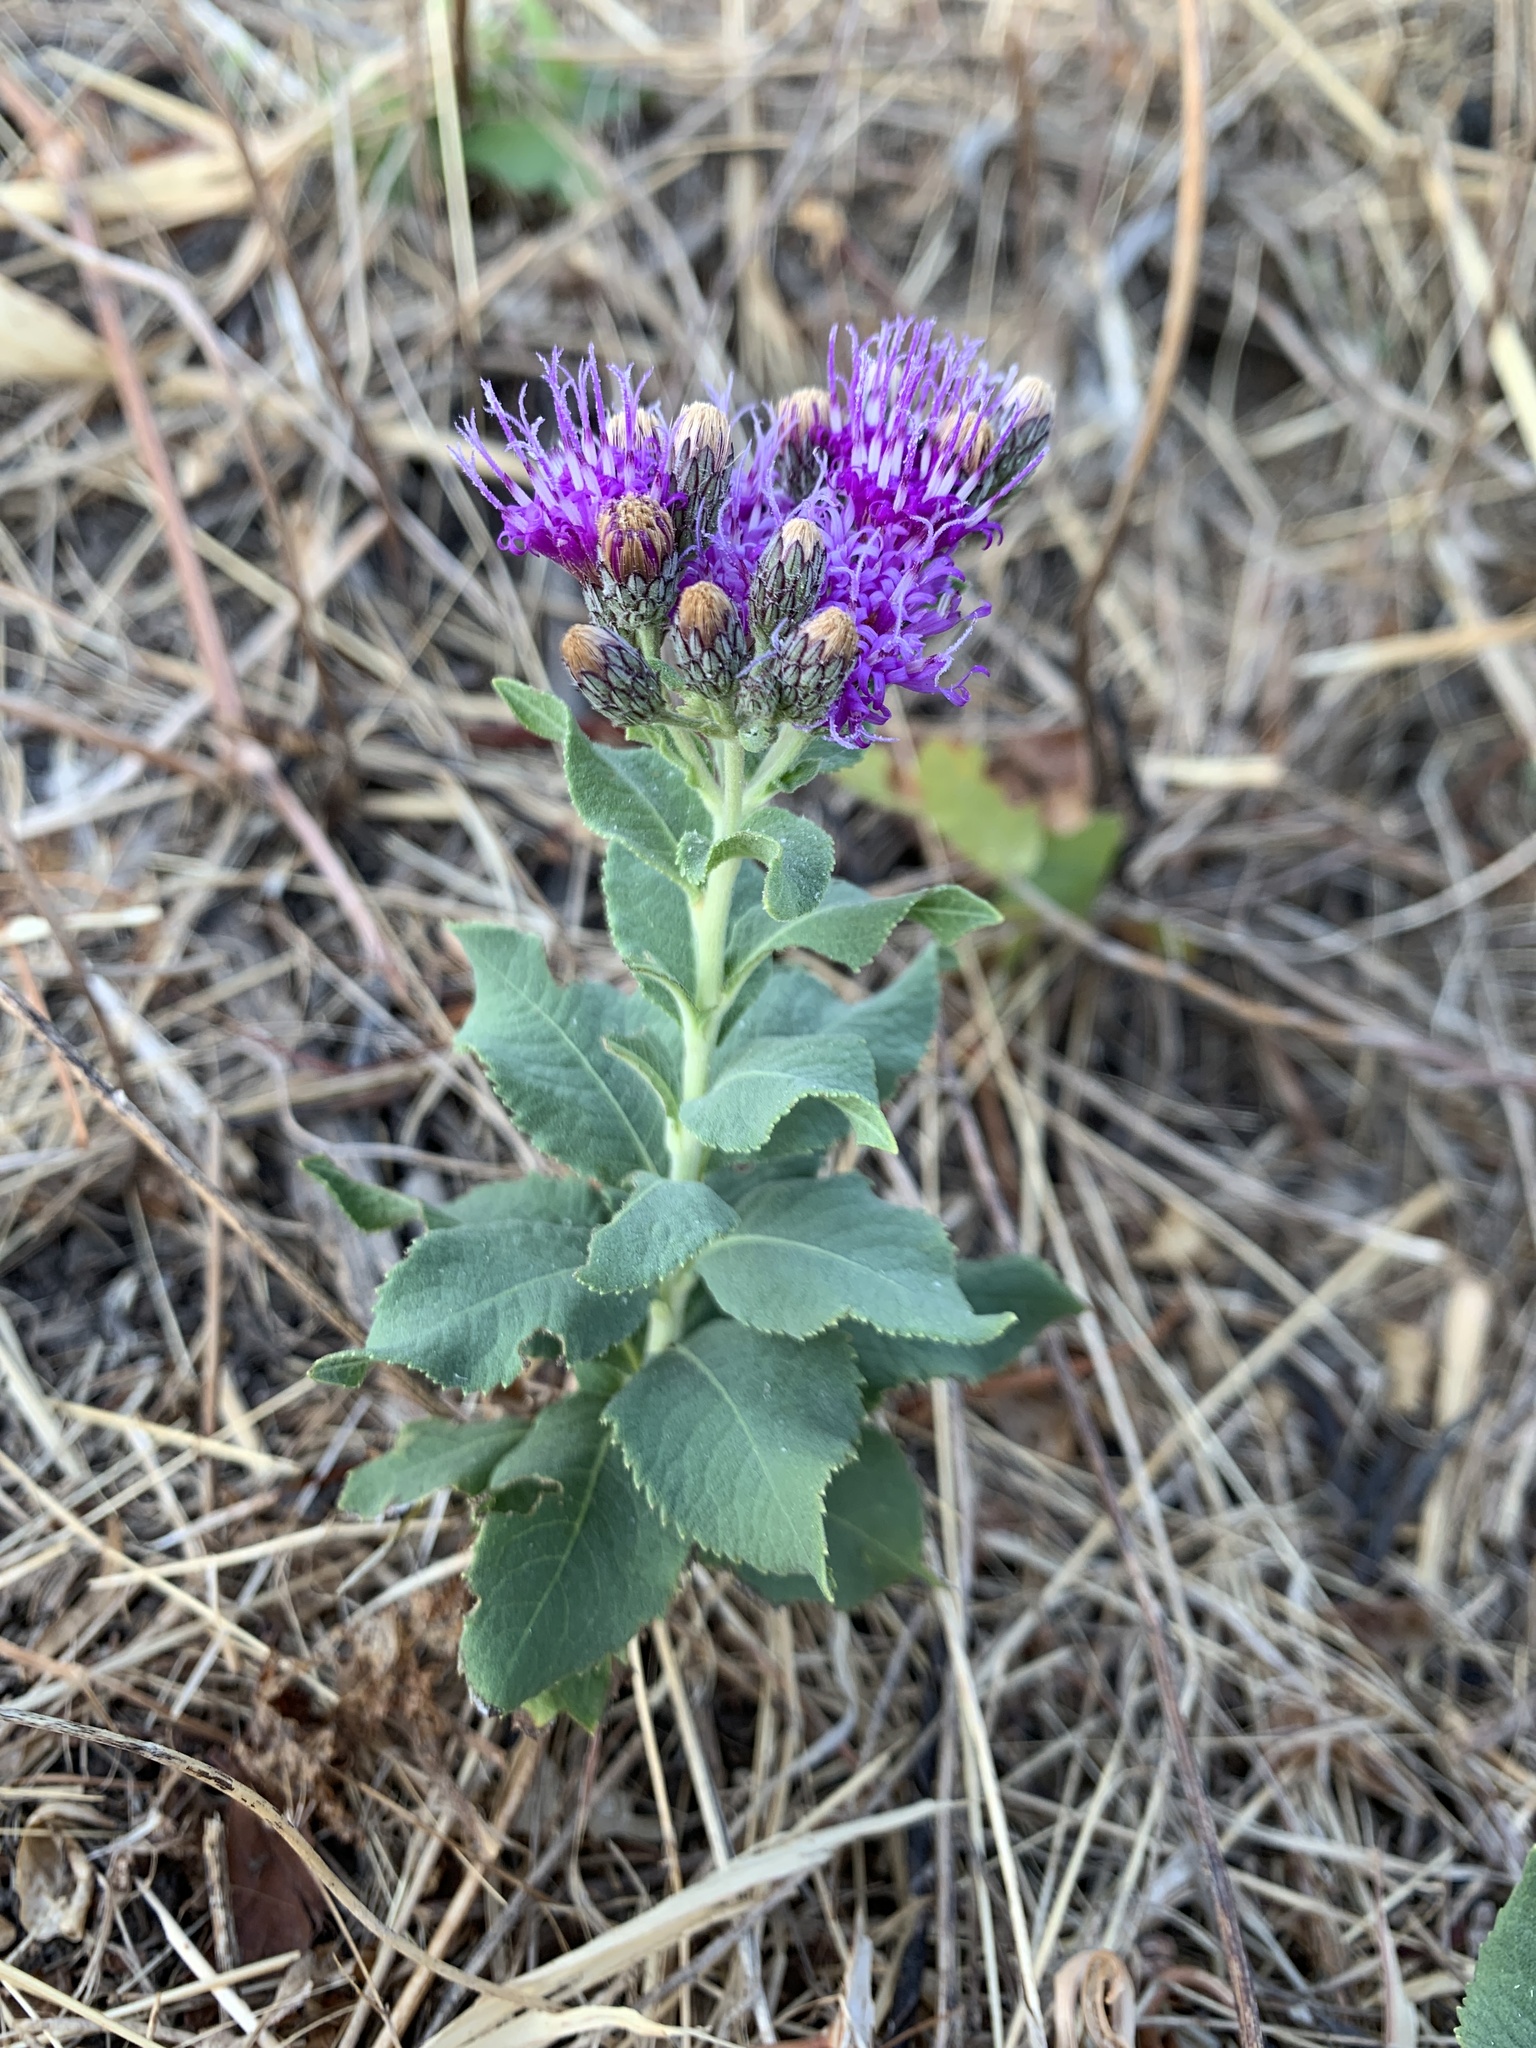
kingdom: Plantae
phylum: Tracheophyta
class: Magnoliopsida
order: Asterales
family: Asteraceae
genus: Vernonia
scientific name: Vernonia baldwinii
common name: Western ironweed
